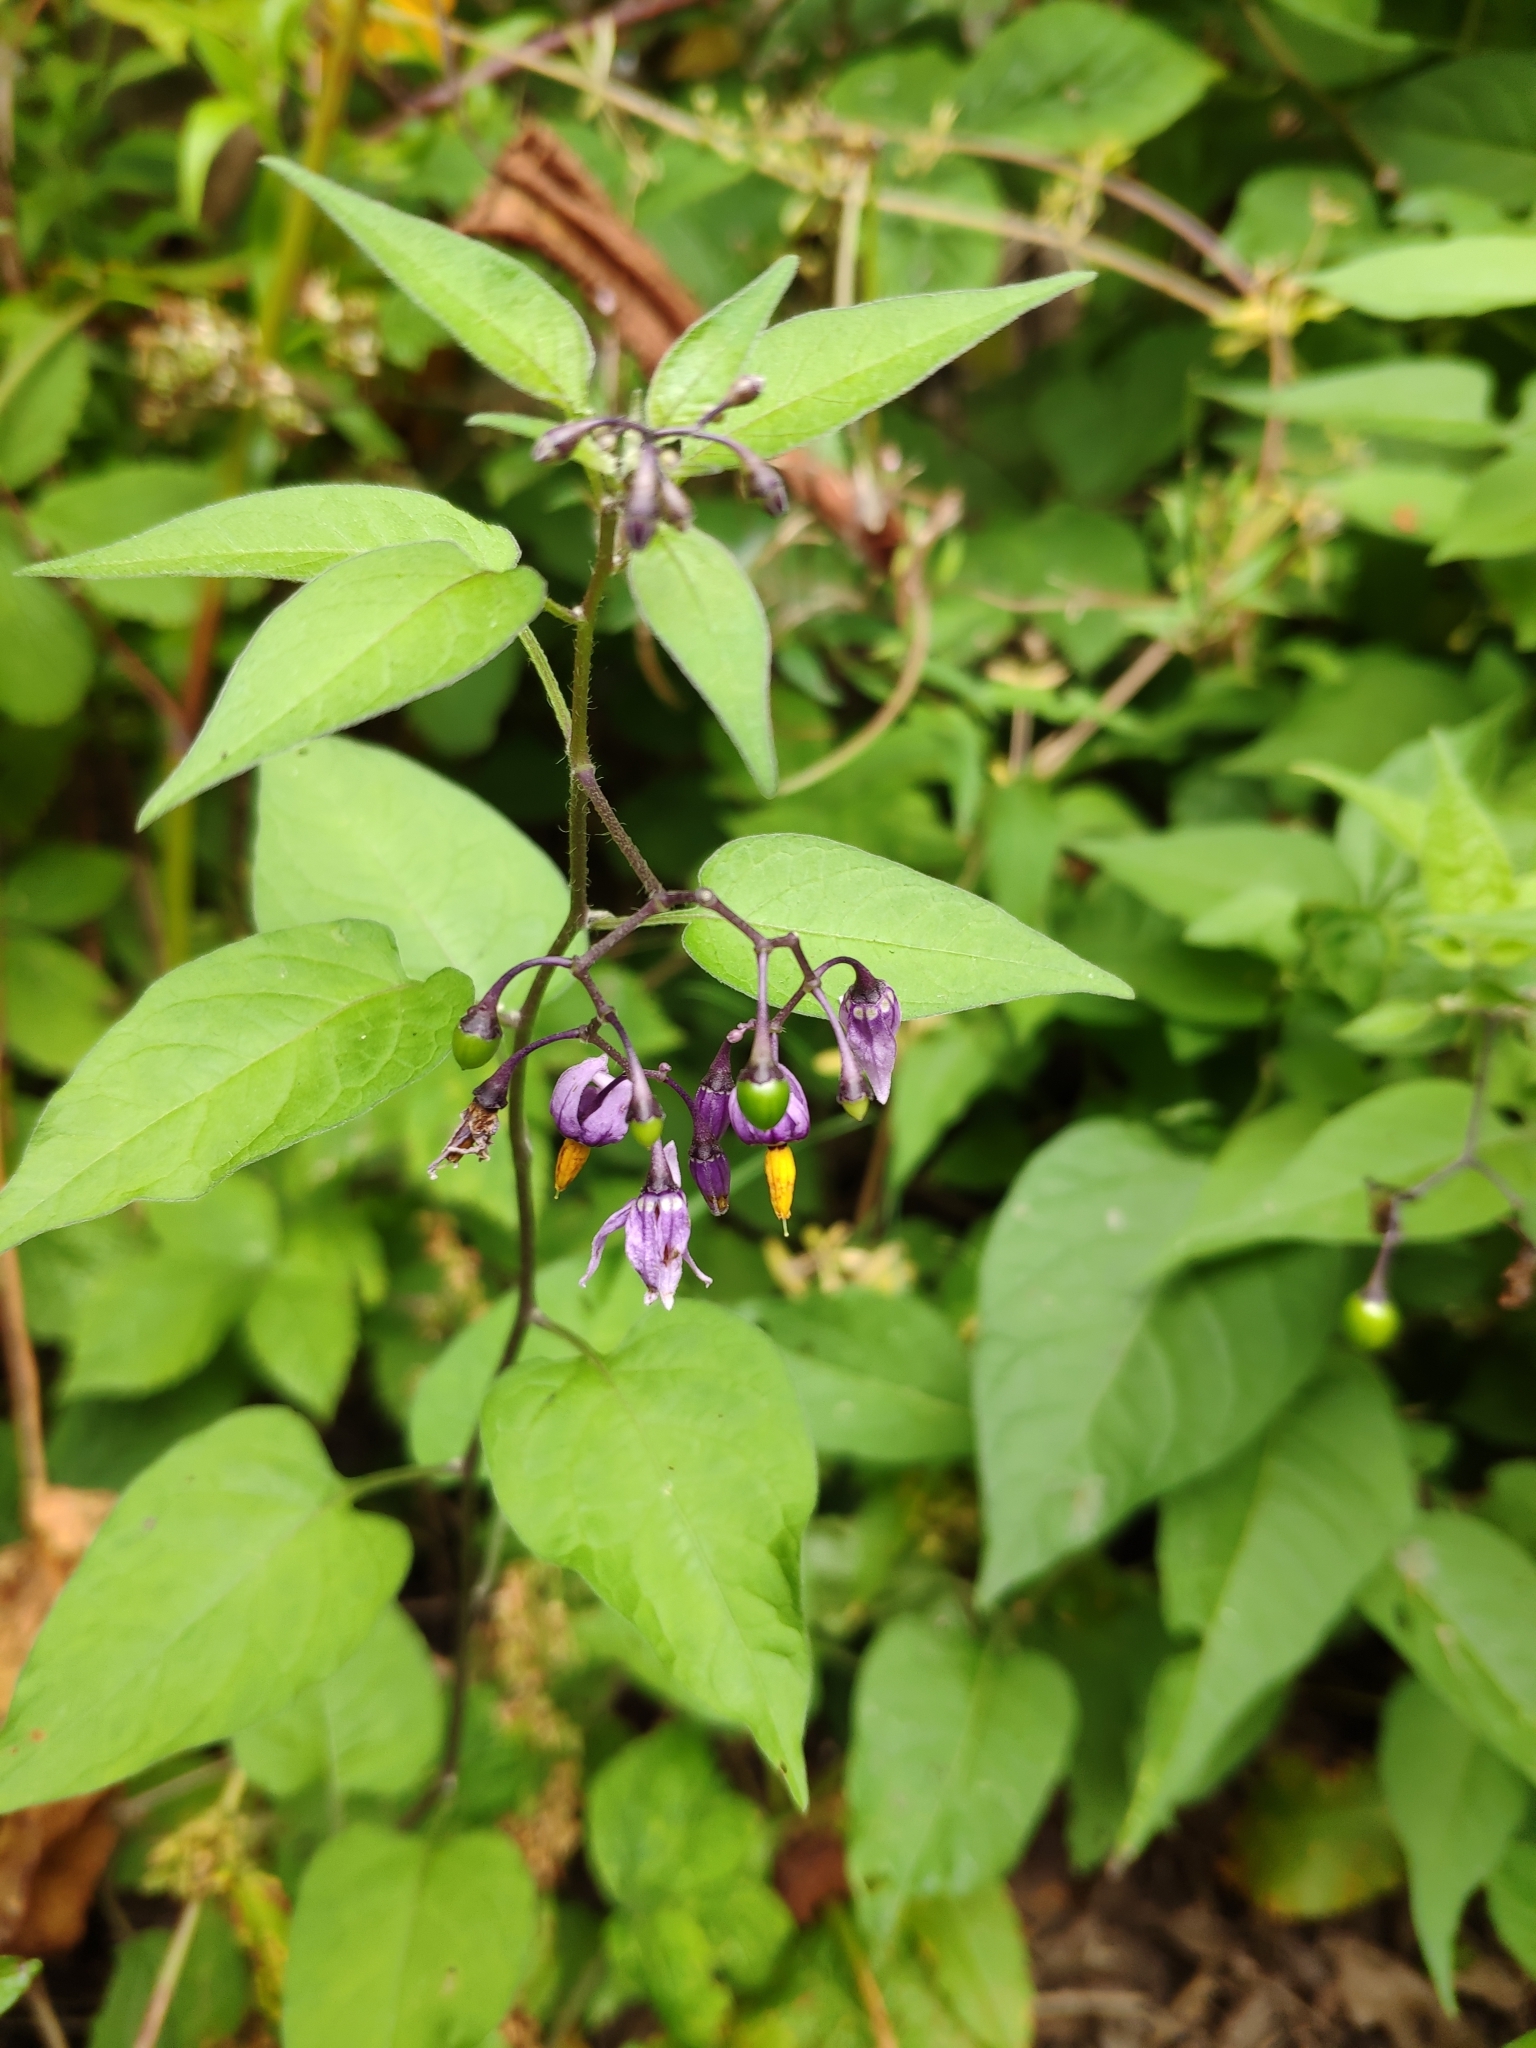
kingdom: Plantae
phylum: Tracheophyta
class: Magnoliopsida
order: Solanales
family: Solanaceae
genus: Solanum
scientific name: Solanum dulcamara
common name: Climbing nightshade
